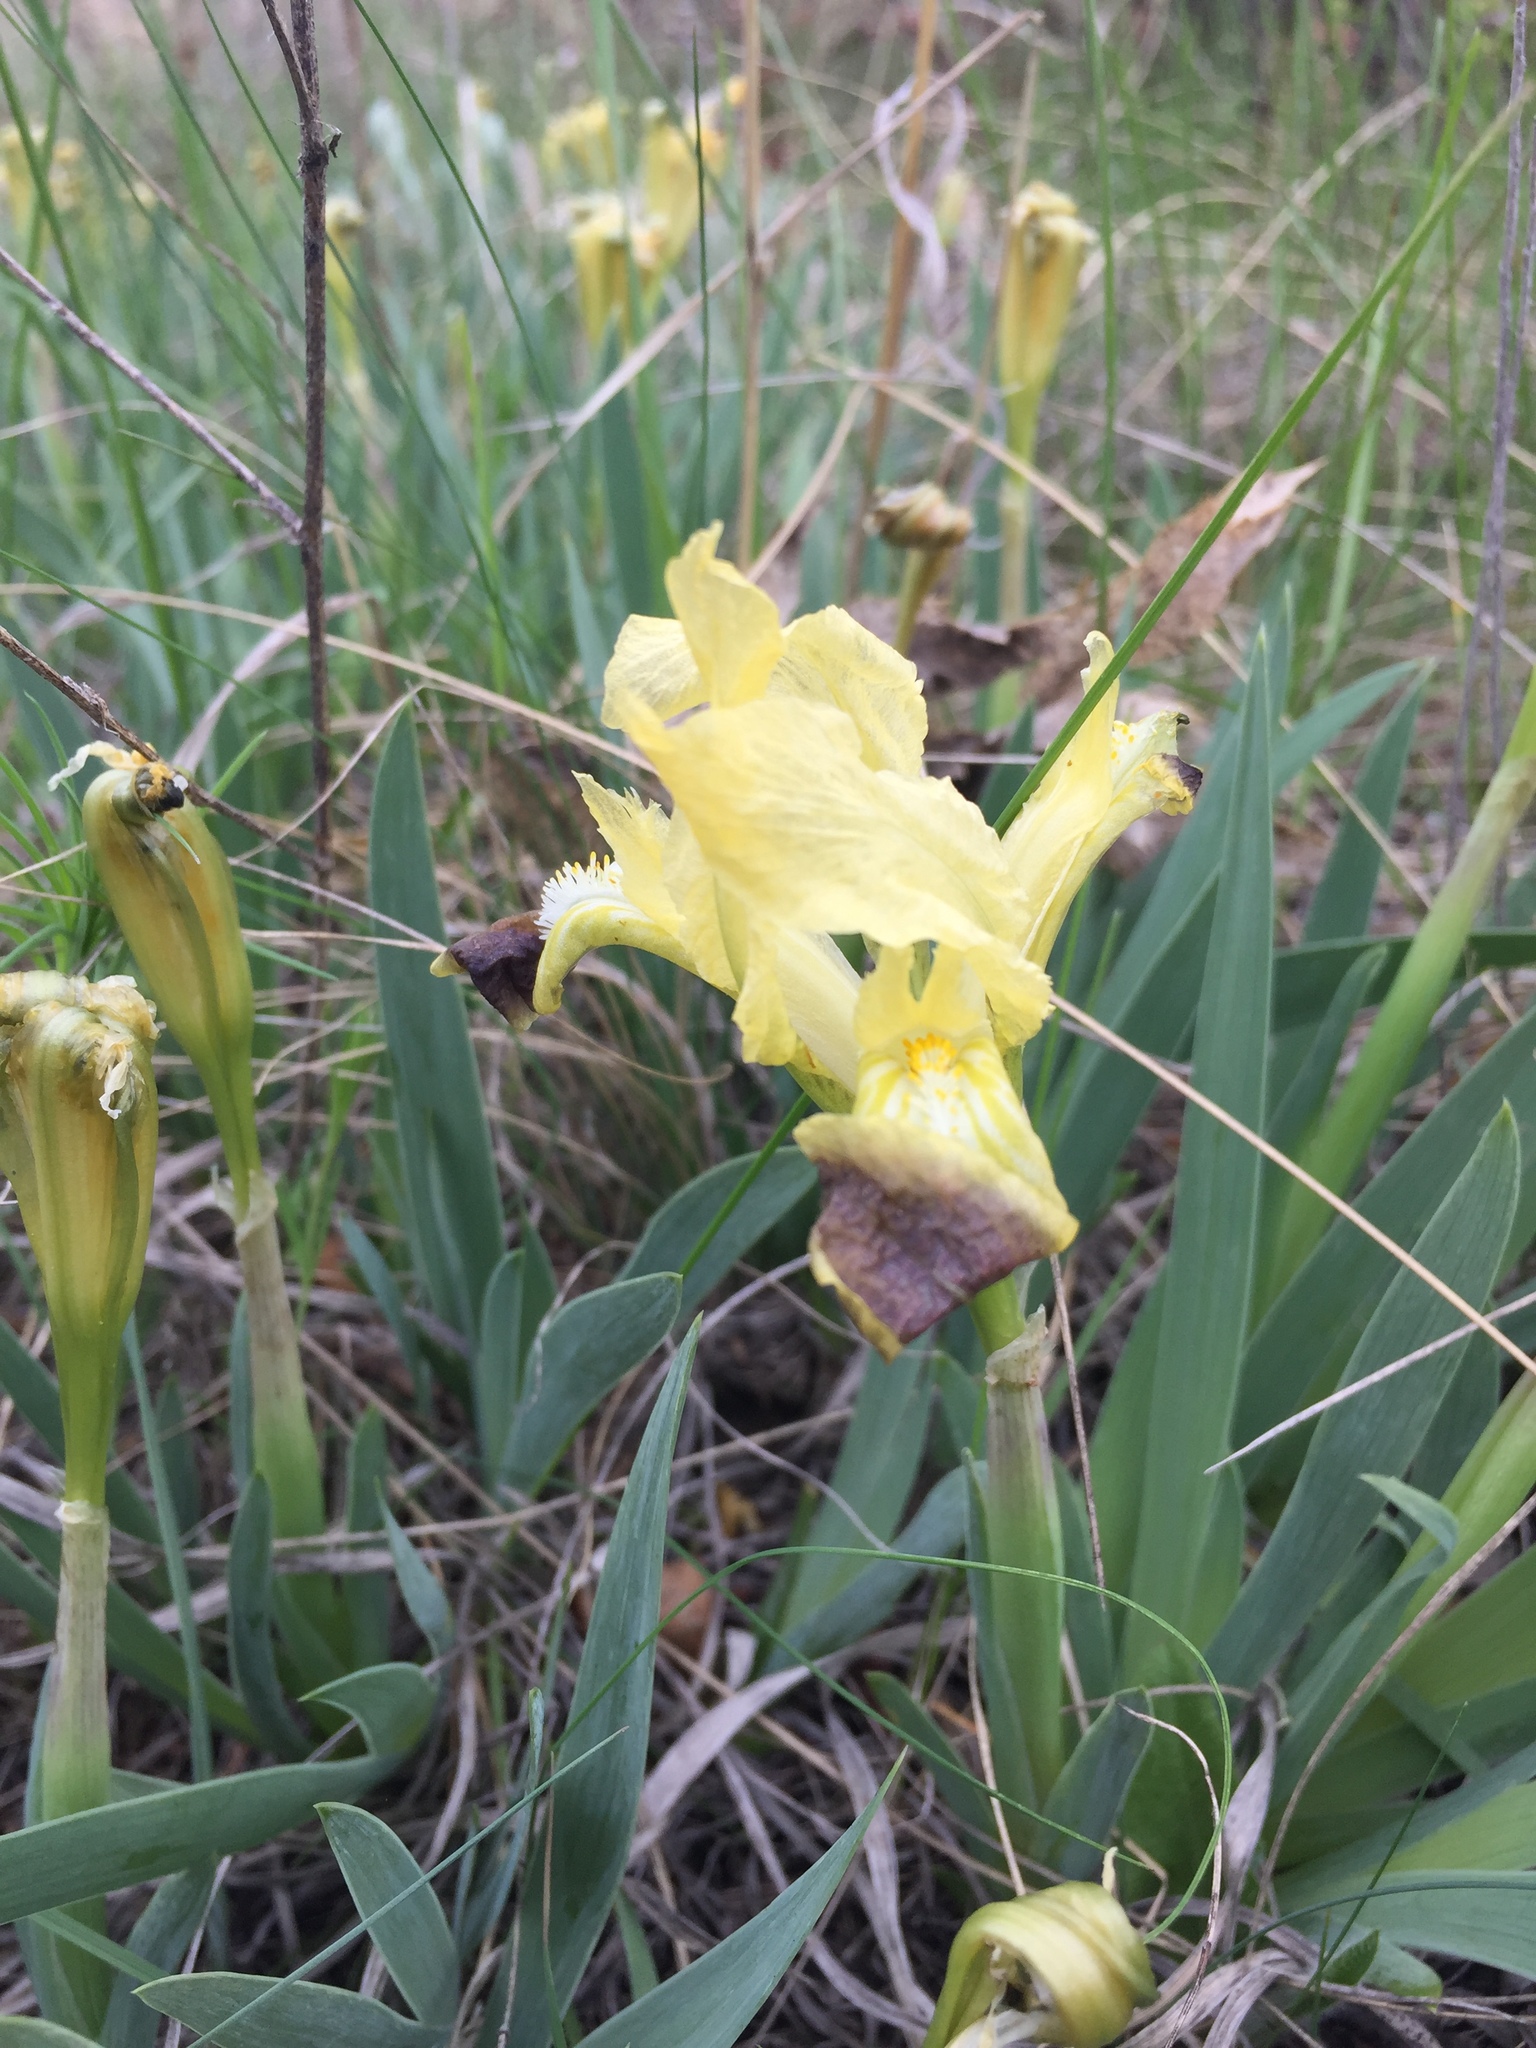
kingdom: Plantae
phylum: Tracheophyta
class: Liliopsida
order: Asparagales
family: Iridaceae
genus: Iris
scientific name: Iris pumila
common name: Dwarf iris
